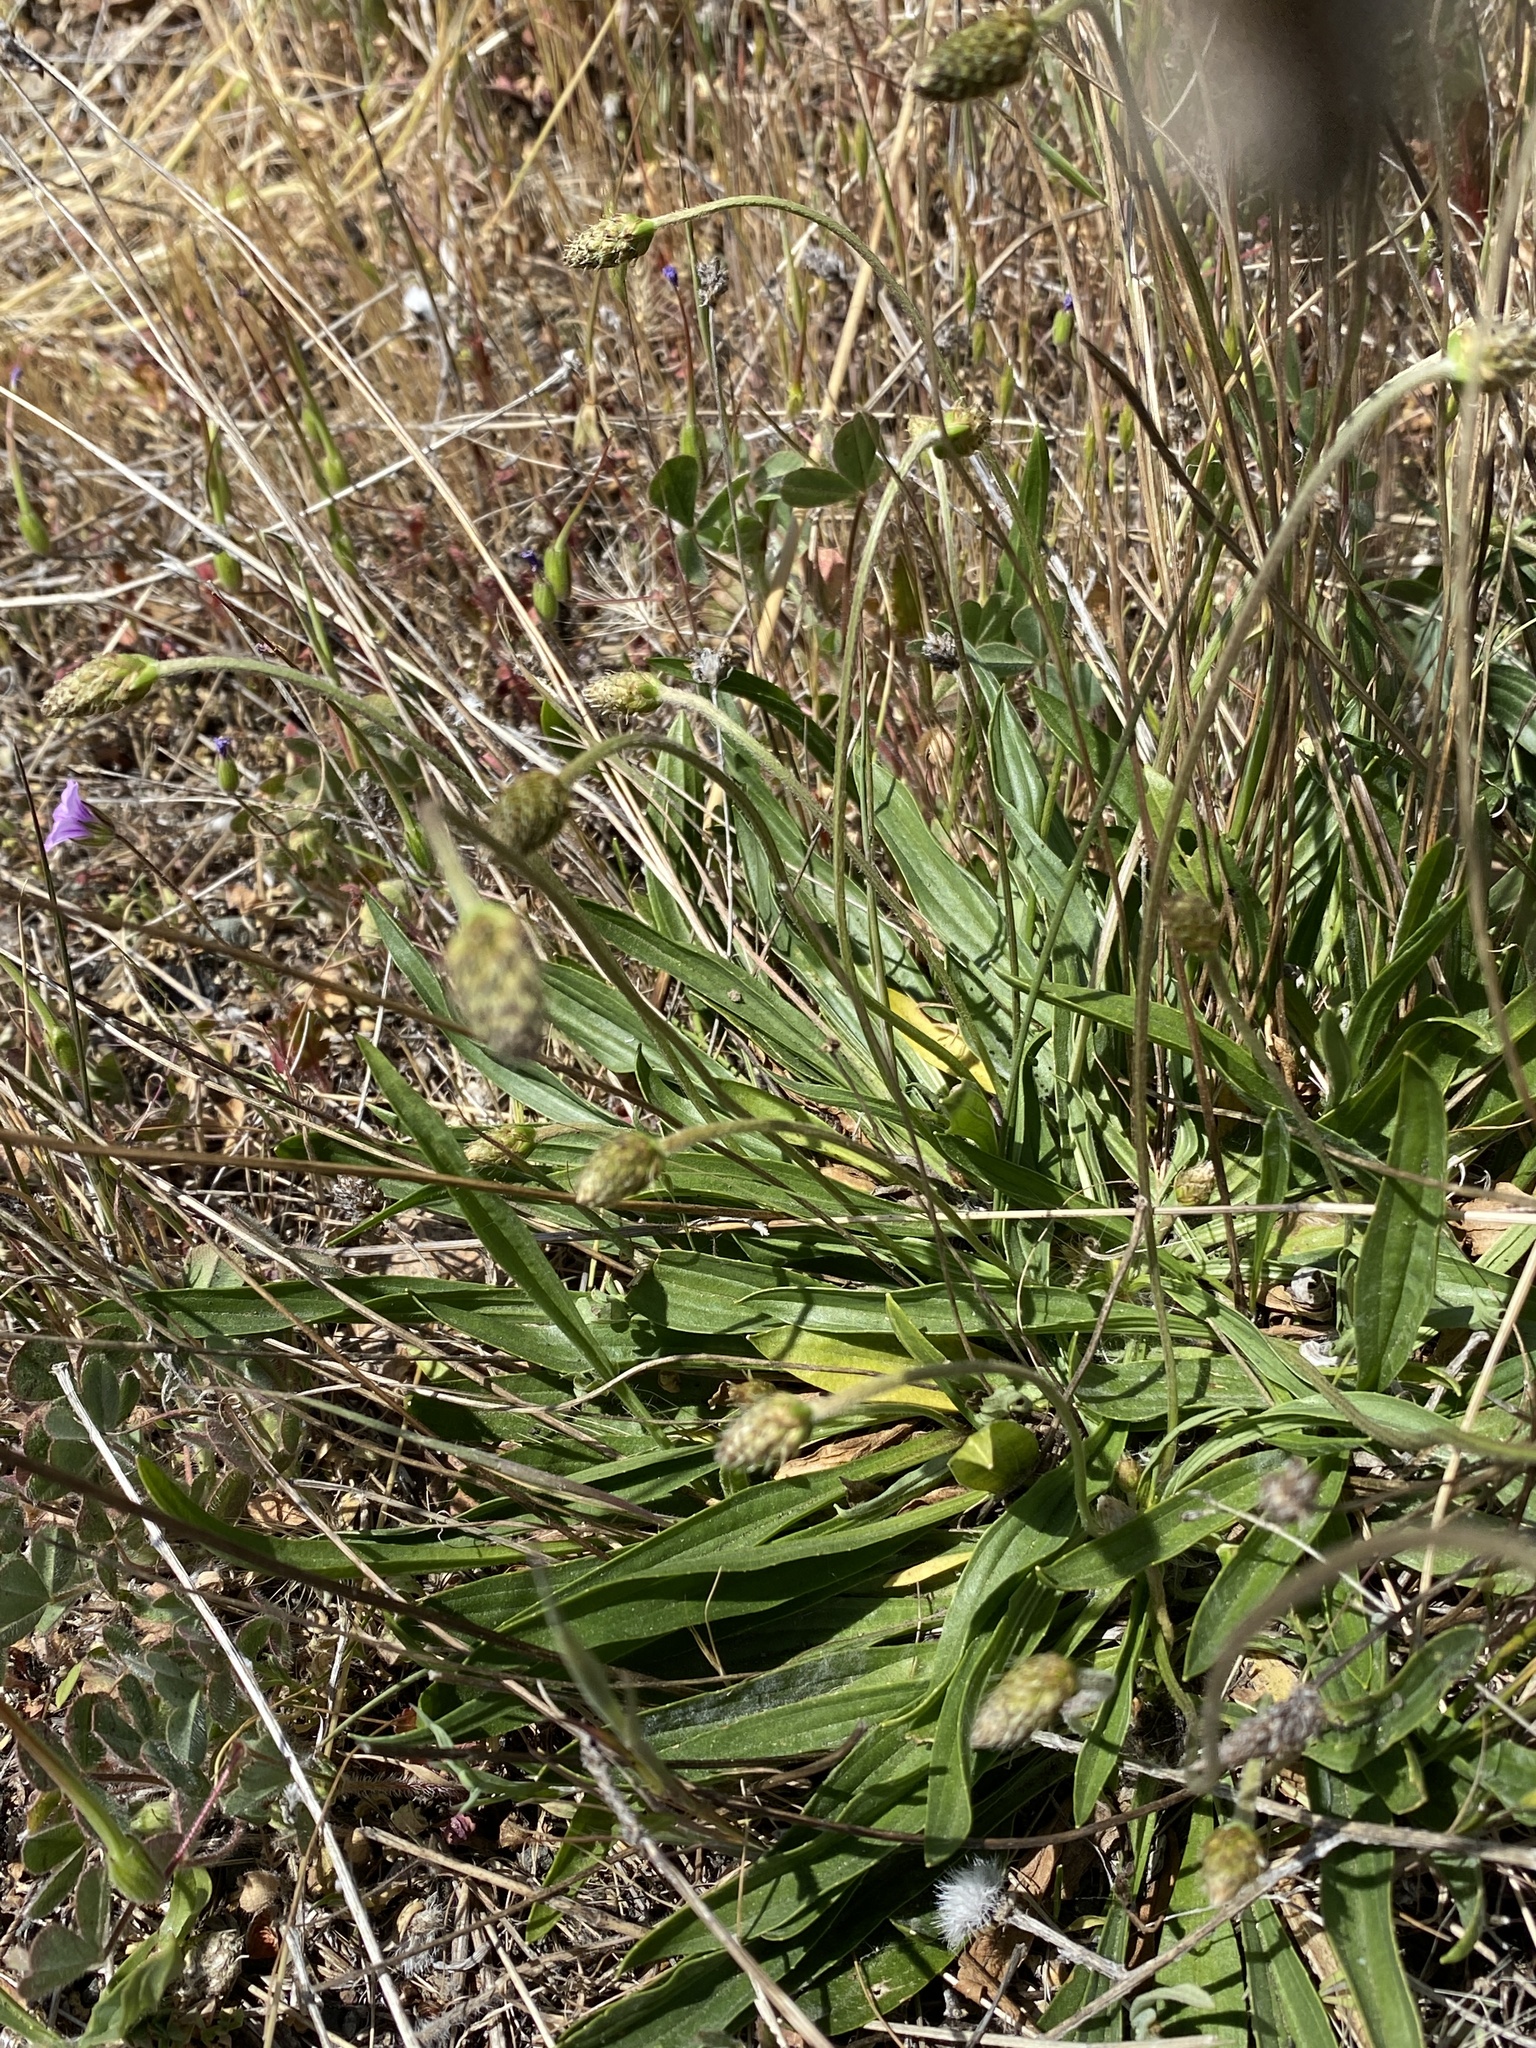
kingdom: Plantae
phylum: Tracheophyta
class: Magnoliopsida
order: Lamiales
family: Plantaginaceae
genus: Plantago
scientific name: Plantago lanceolata
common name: Ribwort plantain
